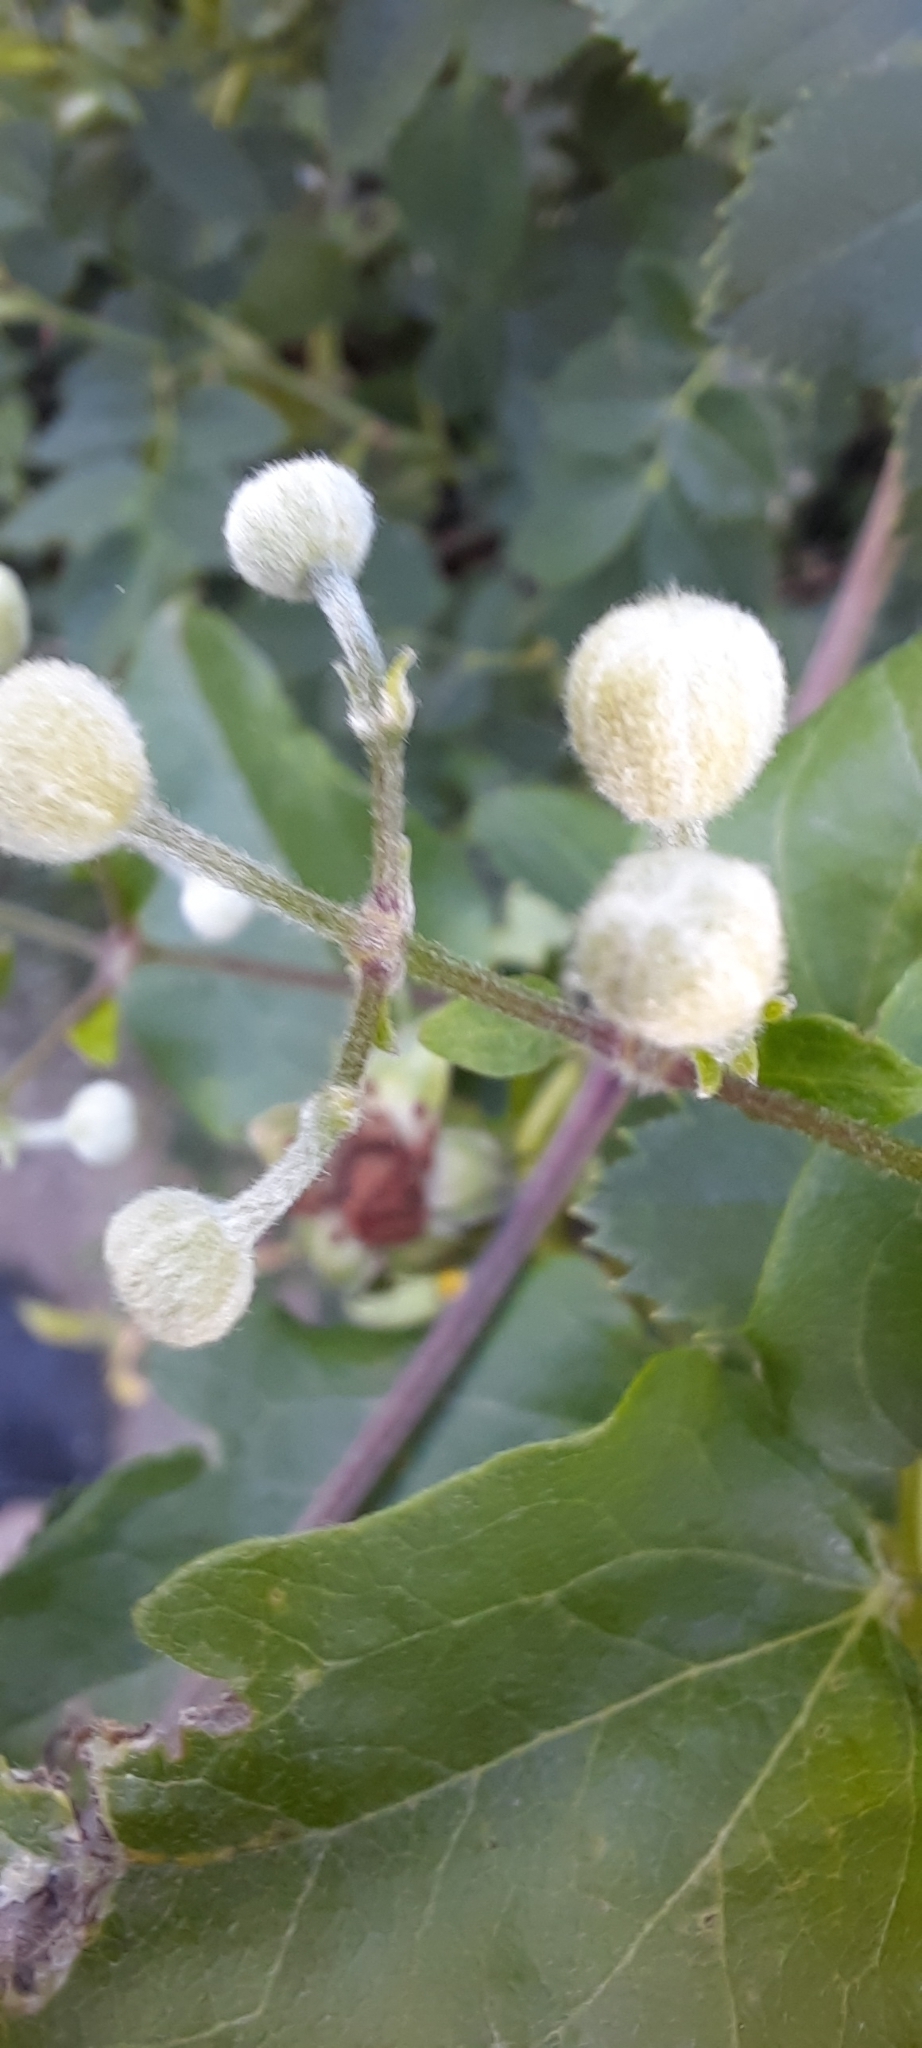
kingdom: Plantae
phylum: Tracheophyta
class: Magnoliopsida
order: Ranunculales
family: Ranunculaceae
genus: Clematis
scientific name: Clematis vitalba
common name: Evergreen clematis
